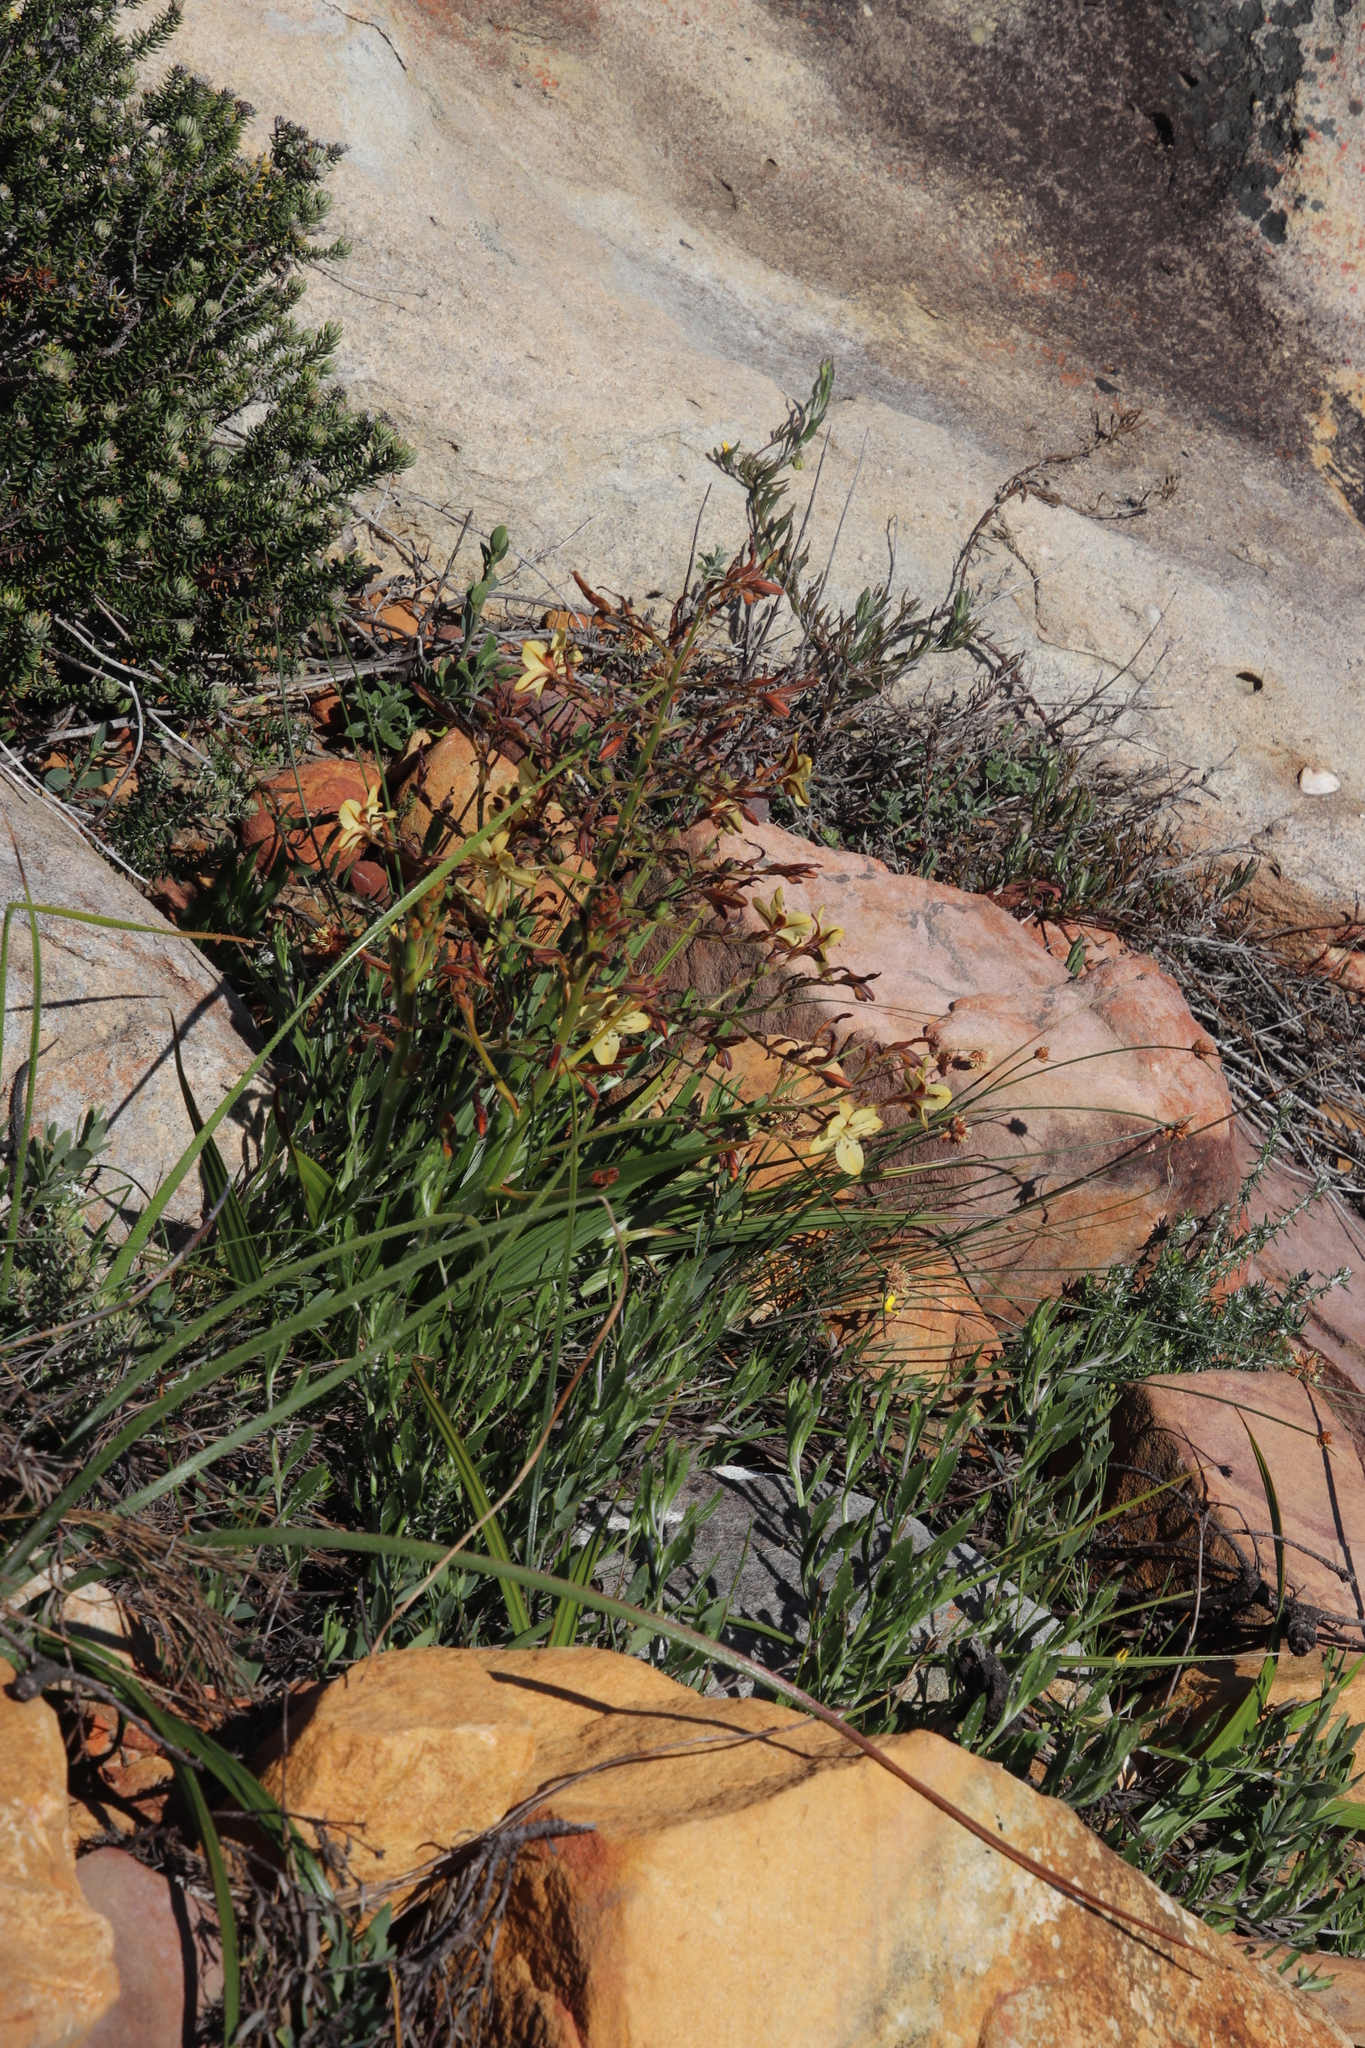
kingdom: Plantae
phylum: Tracheophyta
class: Liliopsida
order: Commelinales
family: Haemodoraceae
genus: Wachendorfia
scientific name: Wachendorfia paniculata
